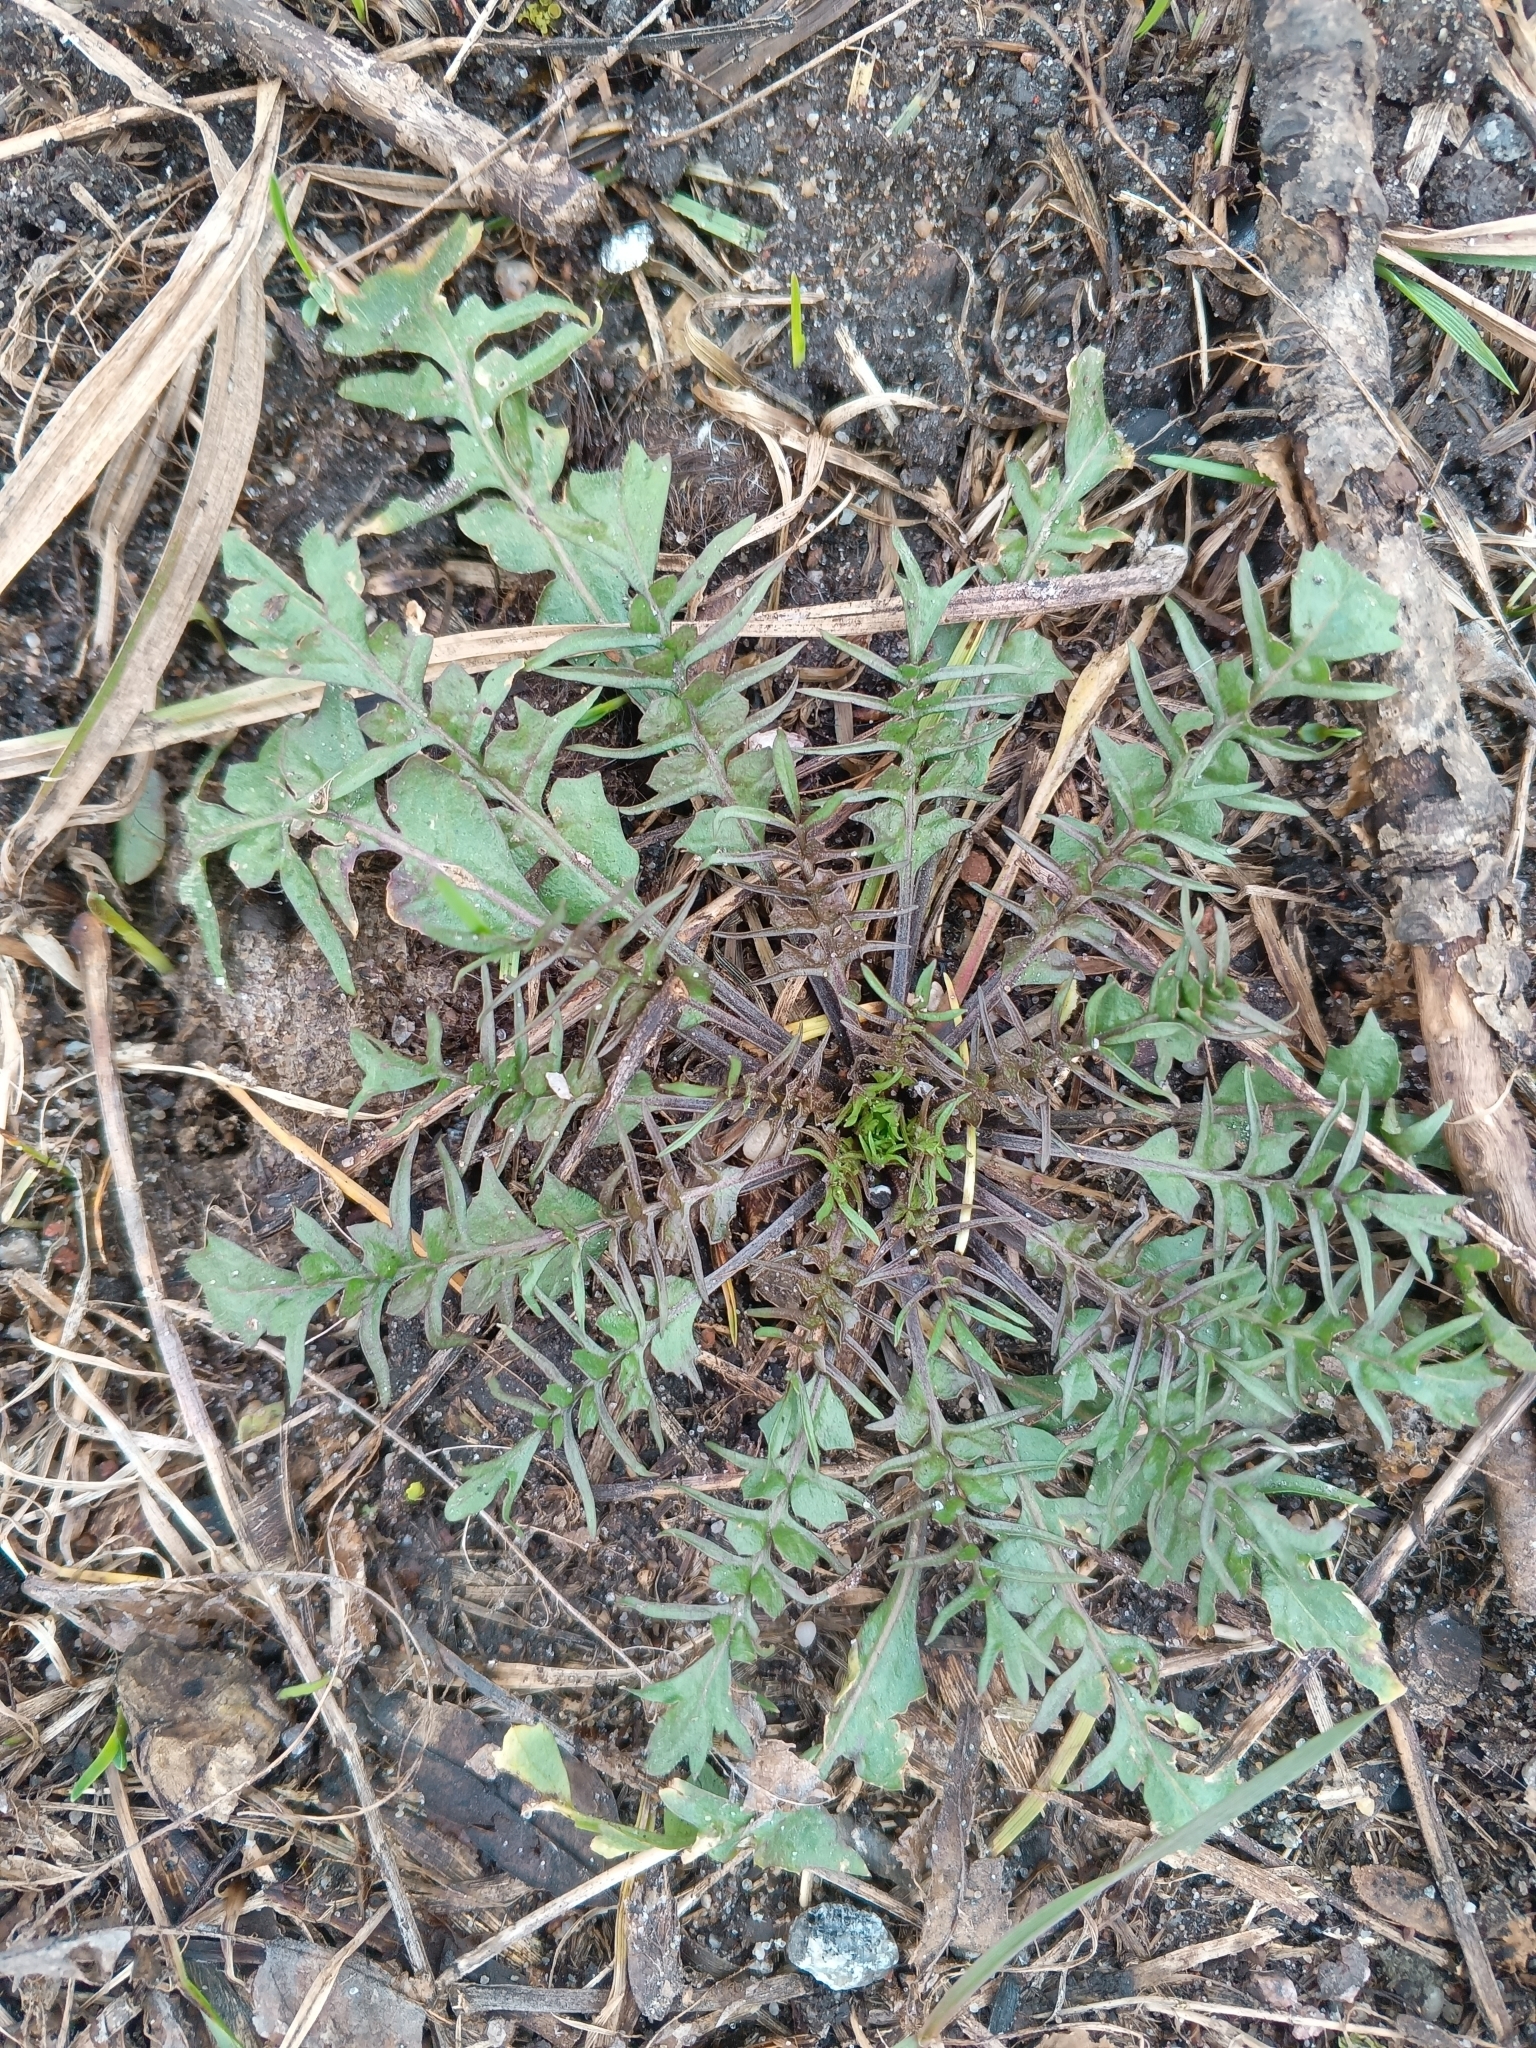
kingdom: Plantae
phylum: Tracheophyta
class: Magnoliopsida
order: Brassicales
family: Brassicaceae
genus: Capsella
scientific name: Capsella bursa-pastoris
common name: Shepherd's purse
